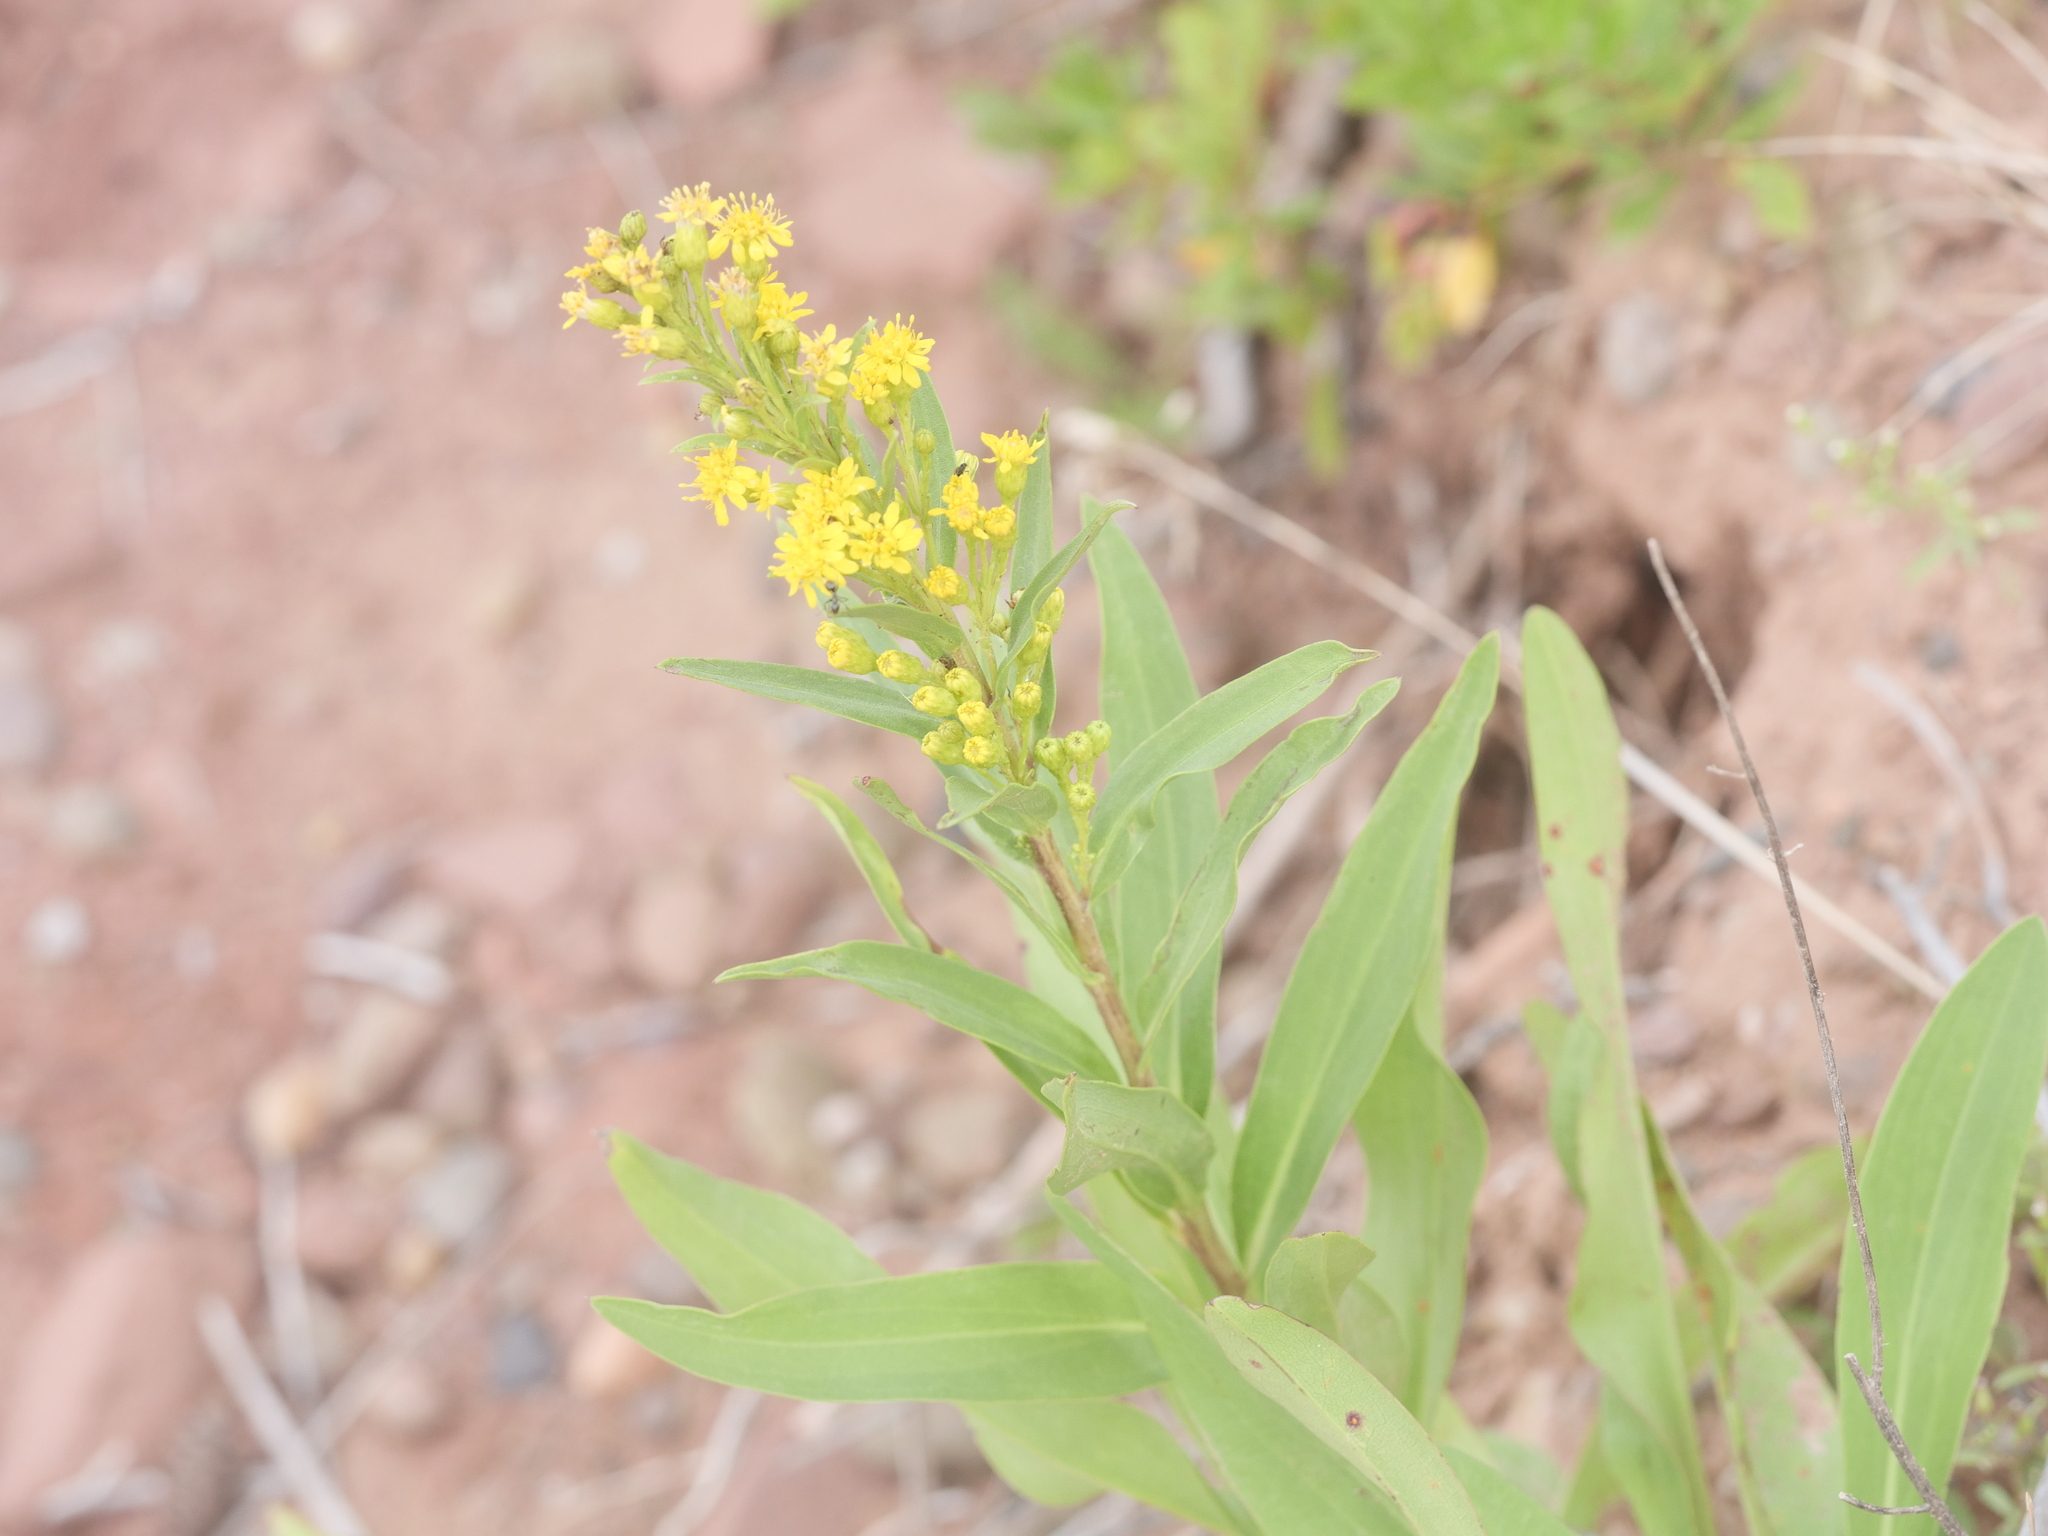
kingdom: Plantae
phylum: Tracheophyta
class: Magnoliopsida
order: Asterales
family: Asteraceae
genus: Solidago
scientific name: Solidago sempervirens
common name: Salt-marsh goldenrod
